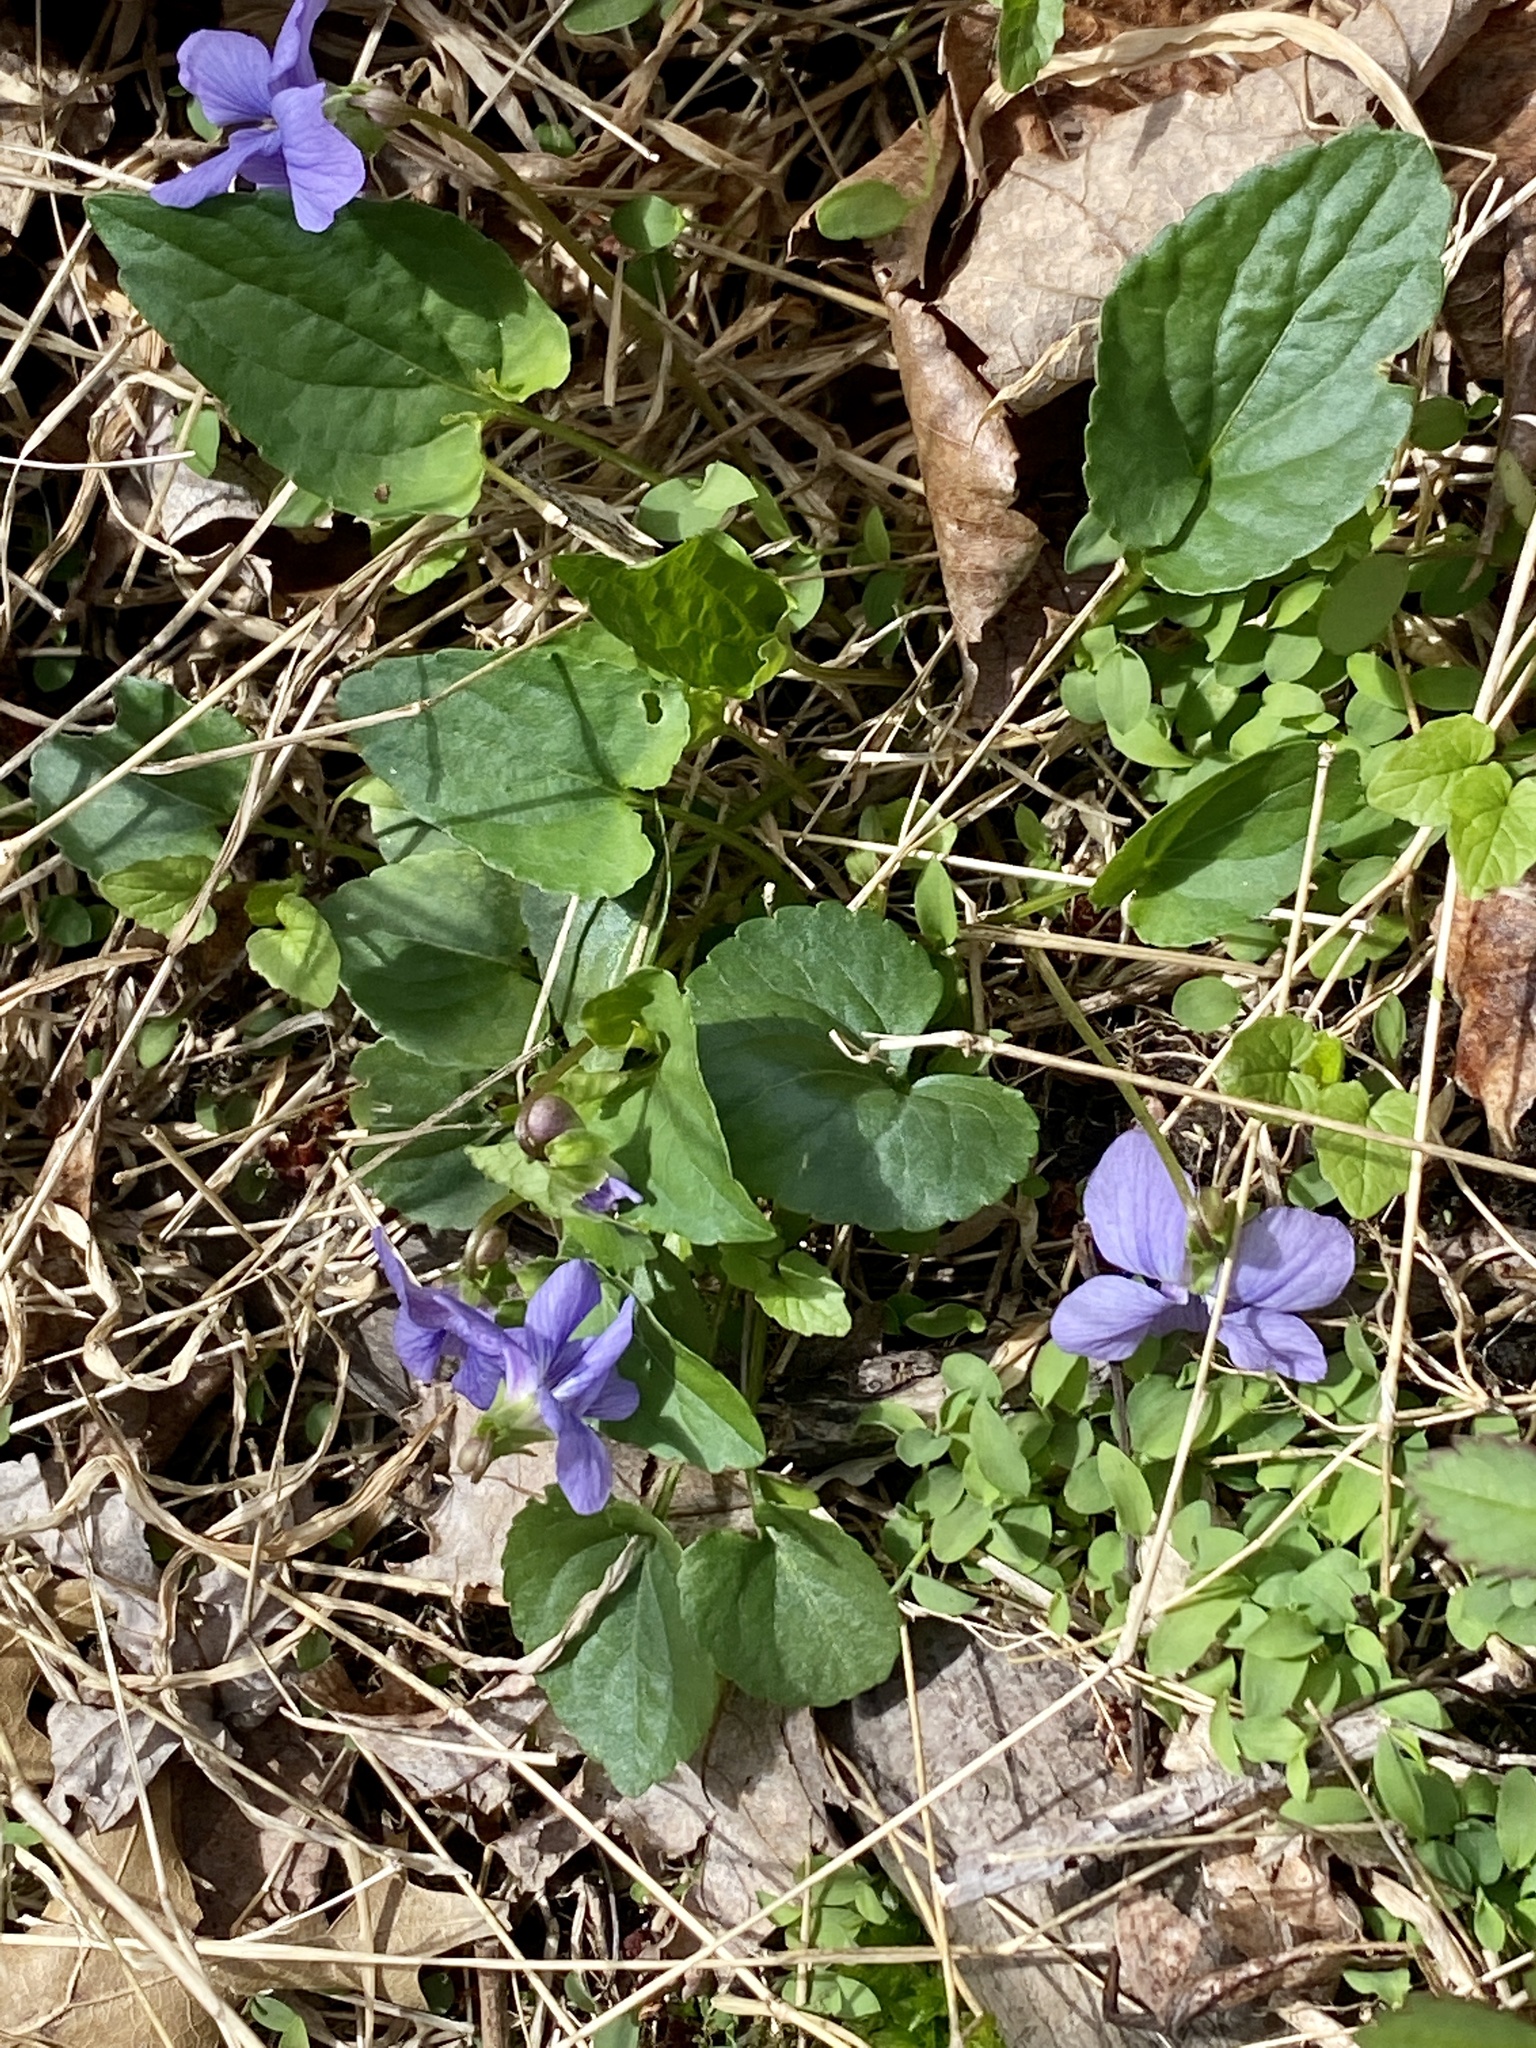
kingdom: Plantae
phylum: Tracheophyta
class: Magnoliopsida
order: Malpighiales
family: Violaceae
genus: Viola
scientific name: Viola sororia
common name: Dooryard violet
